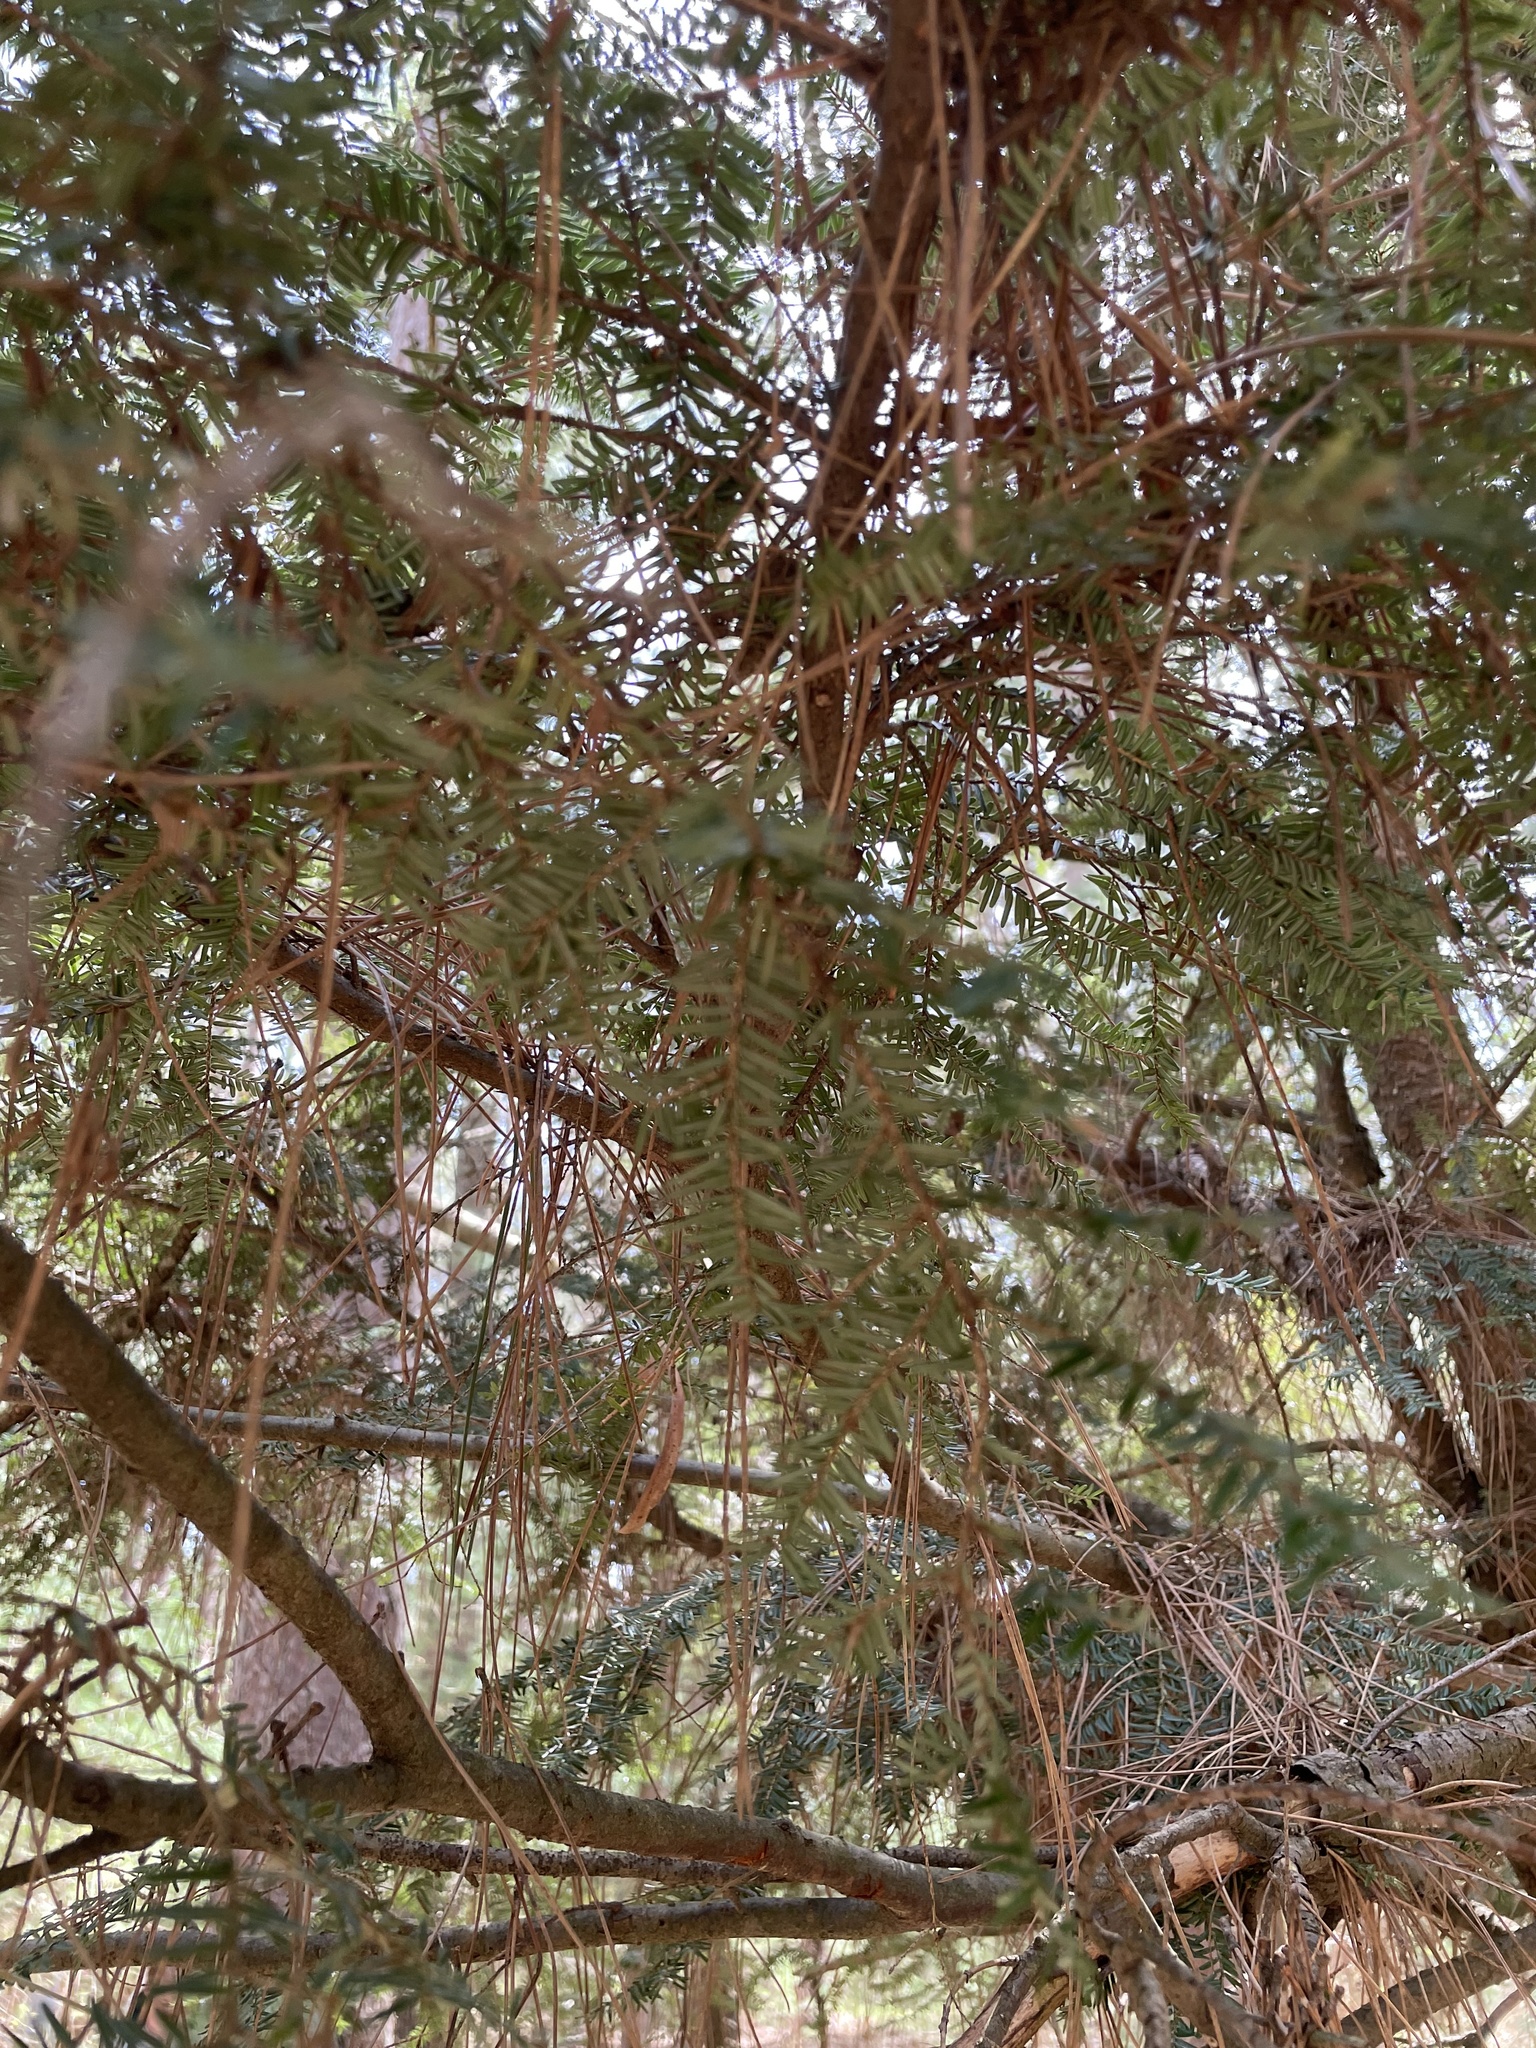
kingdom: Plantae
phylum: Tracheophyta
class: Pinopsida
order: Pinales
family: Pinaceae
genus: Tsuga
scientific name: Tsuga canadensis
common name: Eastern hemlock
